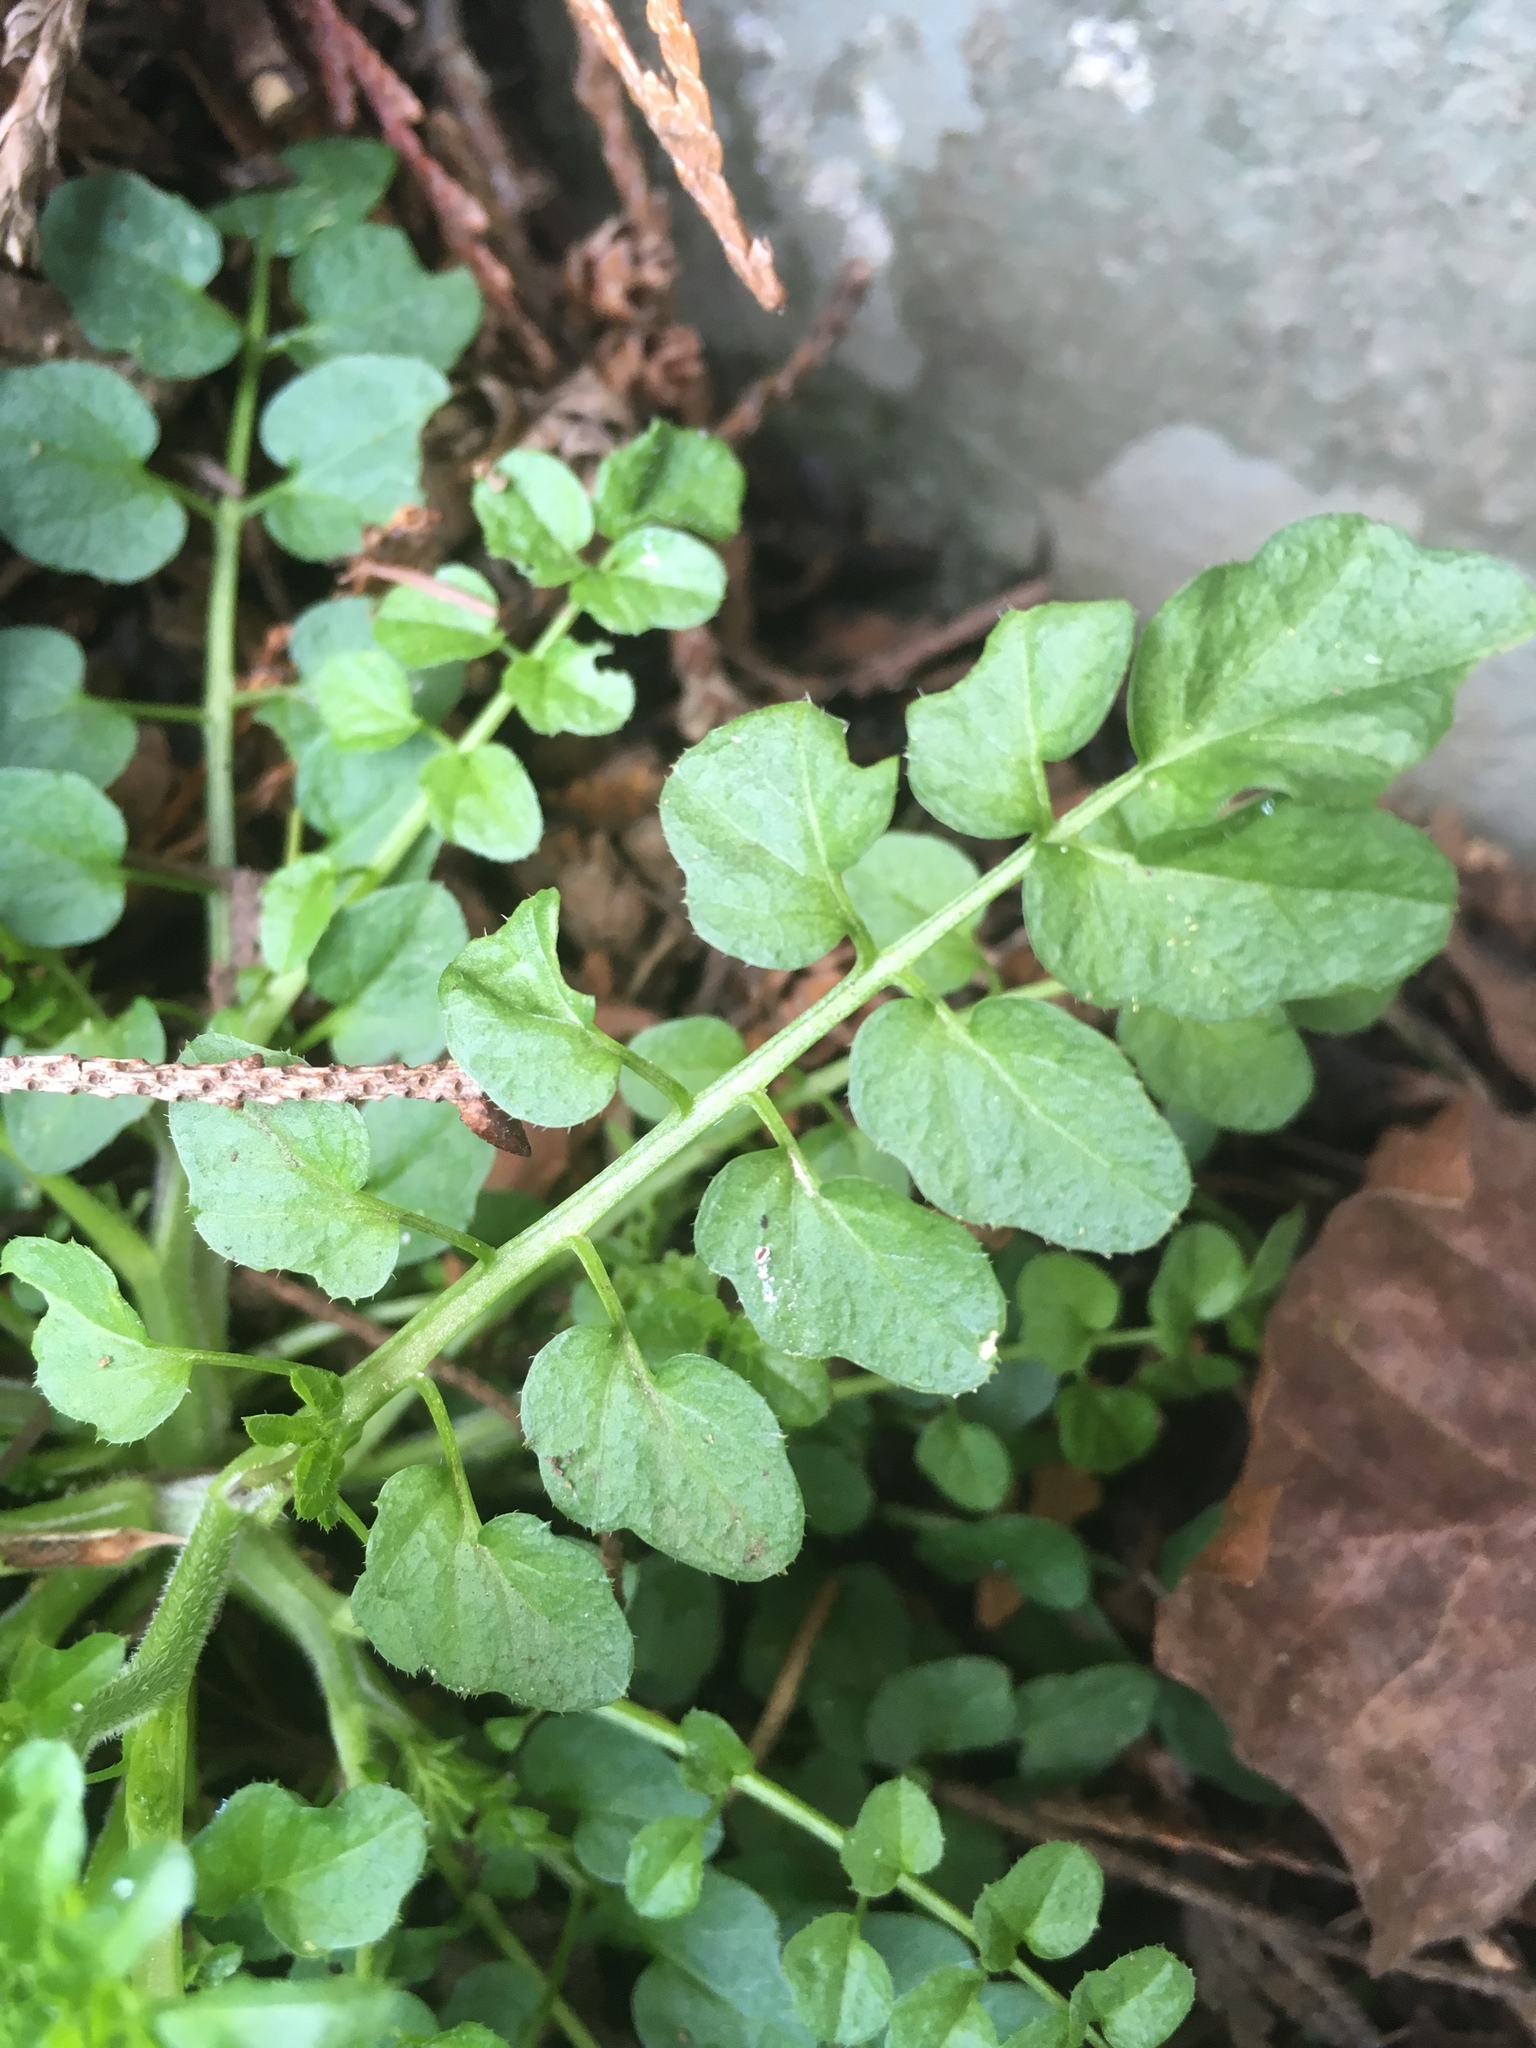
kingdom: Plantae
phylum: Tracheophyta
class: Magnoliopsida
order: Brassicales
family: Brassicaceae
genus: Cardamine
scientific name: Cardamine flexuosa
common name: Woodland bittercress
